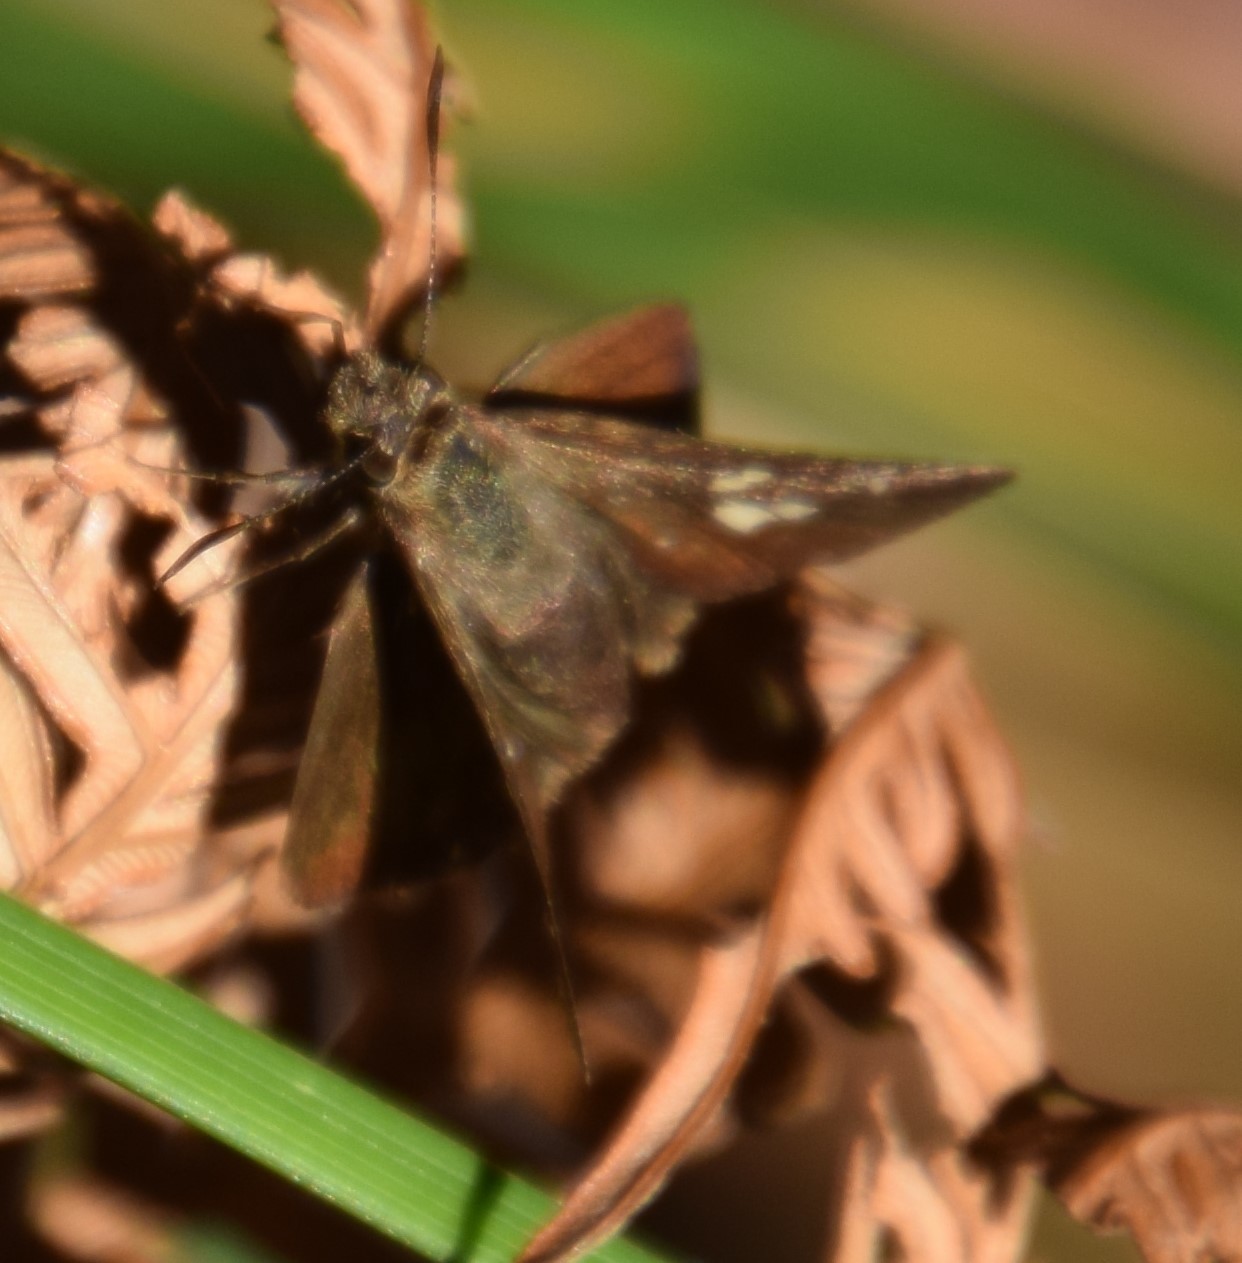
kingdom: Animalia
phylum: Arthropoda
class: Insecta
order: Lepidoptera
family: Hesperiidae
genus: Toxidia
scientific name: Toxidia
